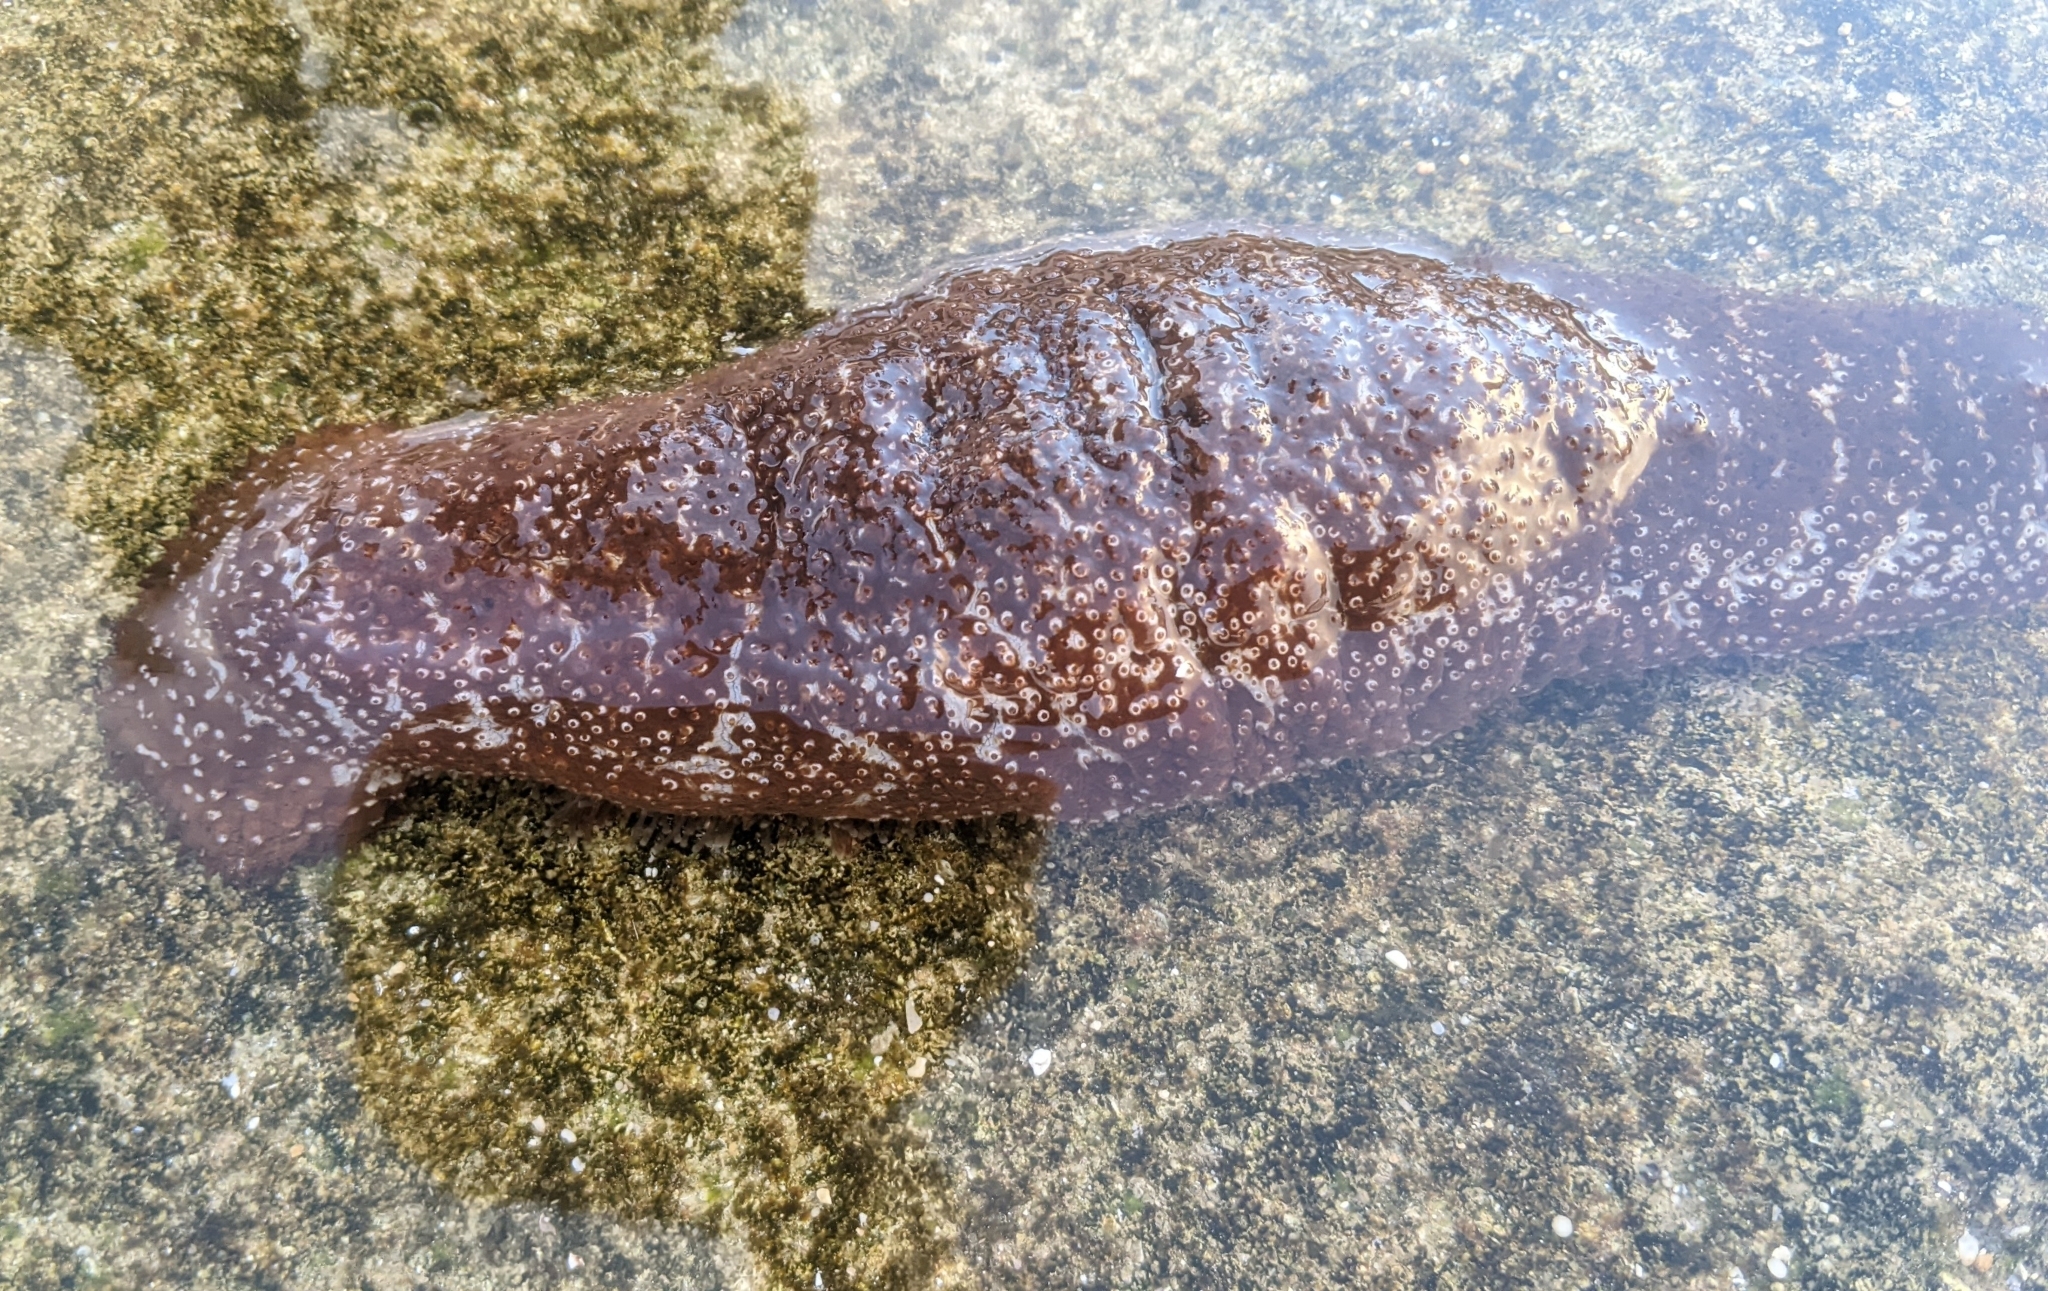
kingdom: Animalia
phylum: Echinodermata
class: Holothuroidea
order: Holothuriida
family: Holothuriidae
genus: Actinopyga
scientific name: Actinopyga varians
